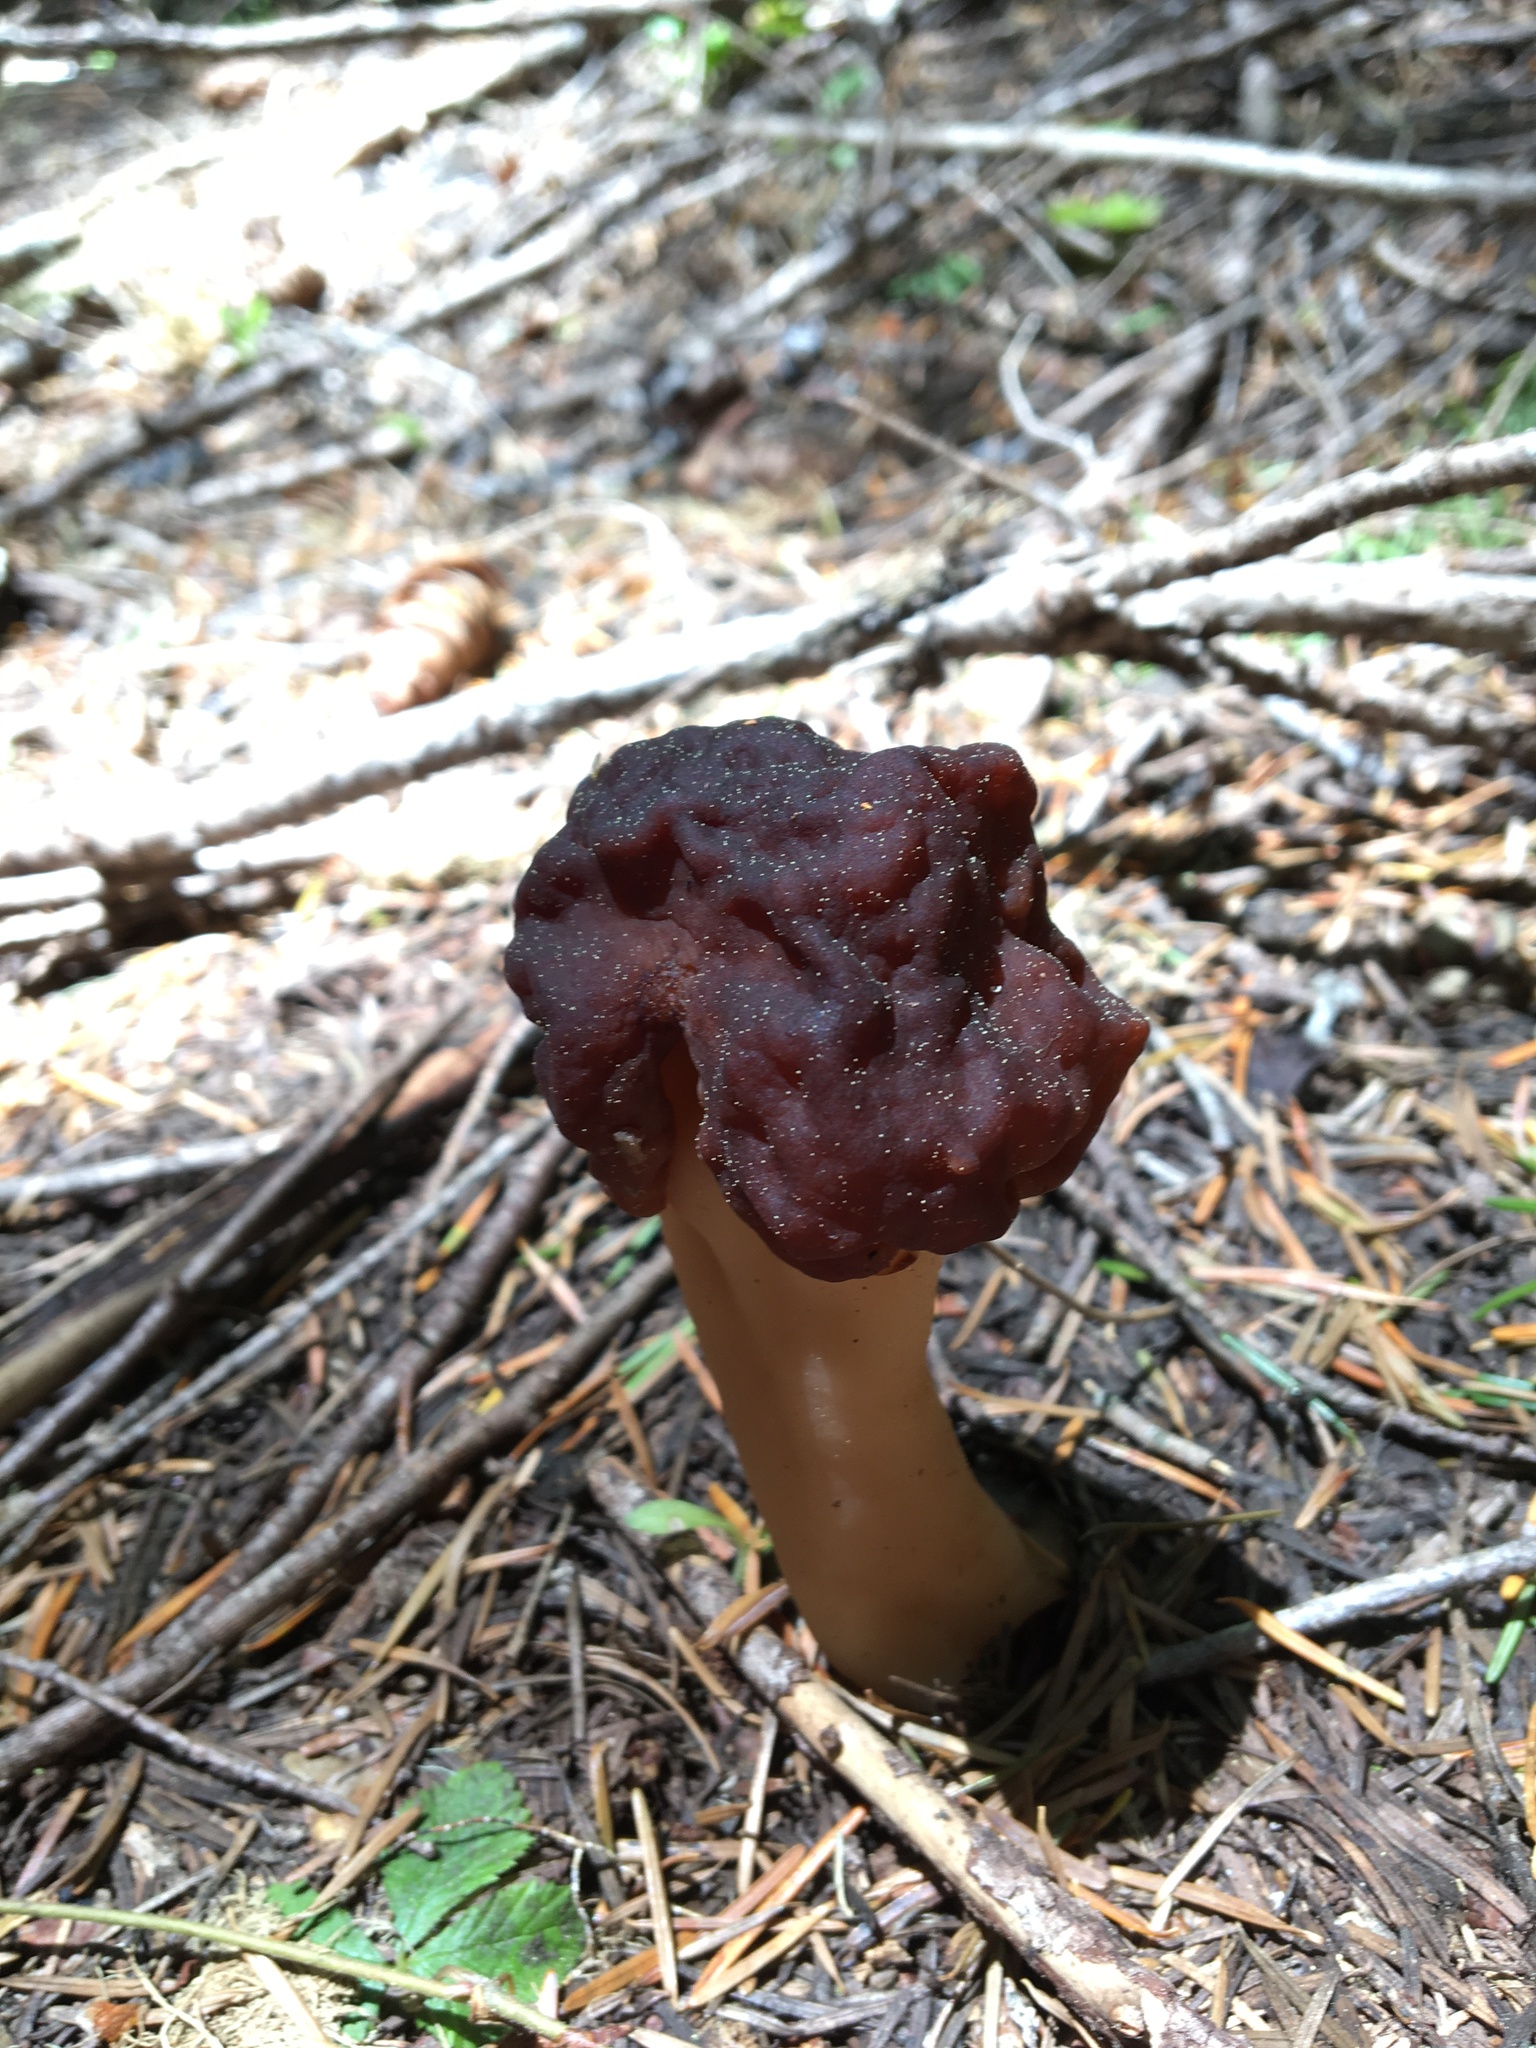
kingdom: Fungi
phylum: Ascomycota
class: Pezizomycetes
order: Pezizales
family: Discinaceae
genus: Gyromitra
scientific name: Gyromitra esculenta
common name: False morel
